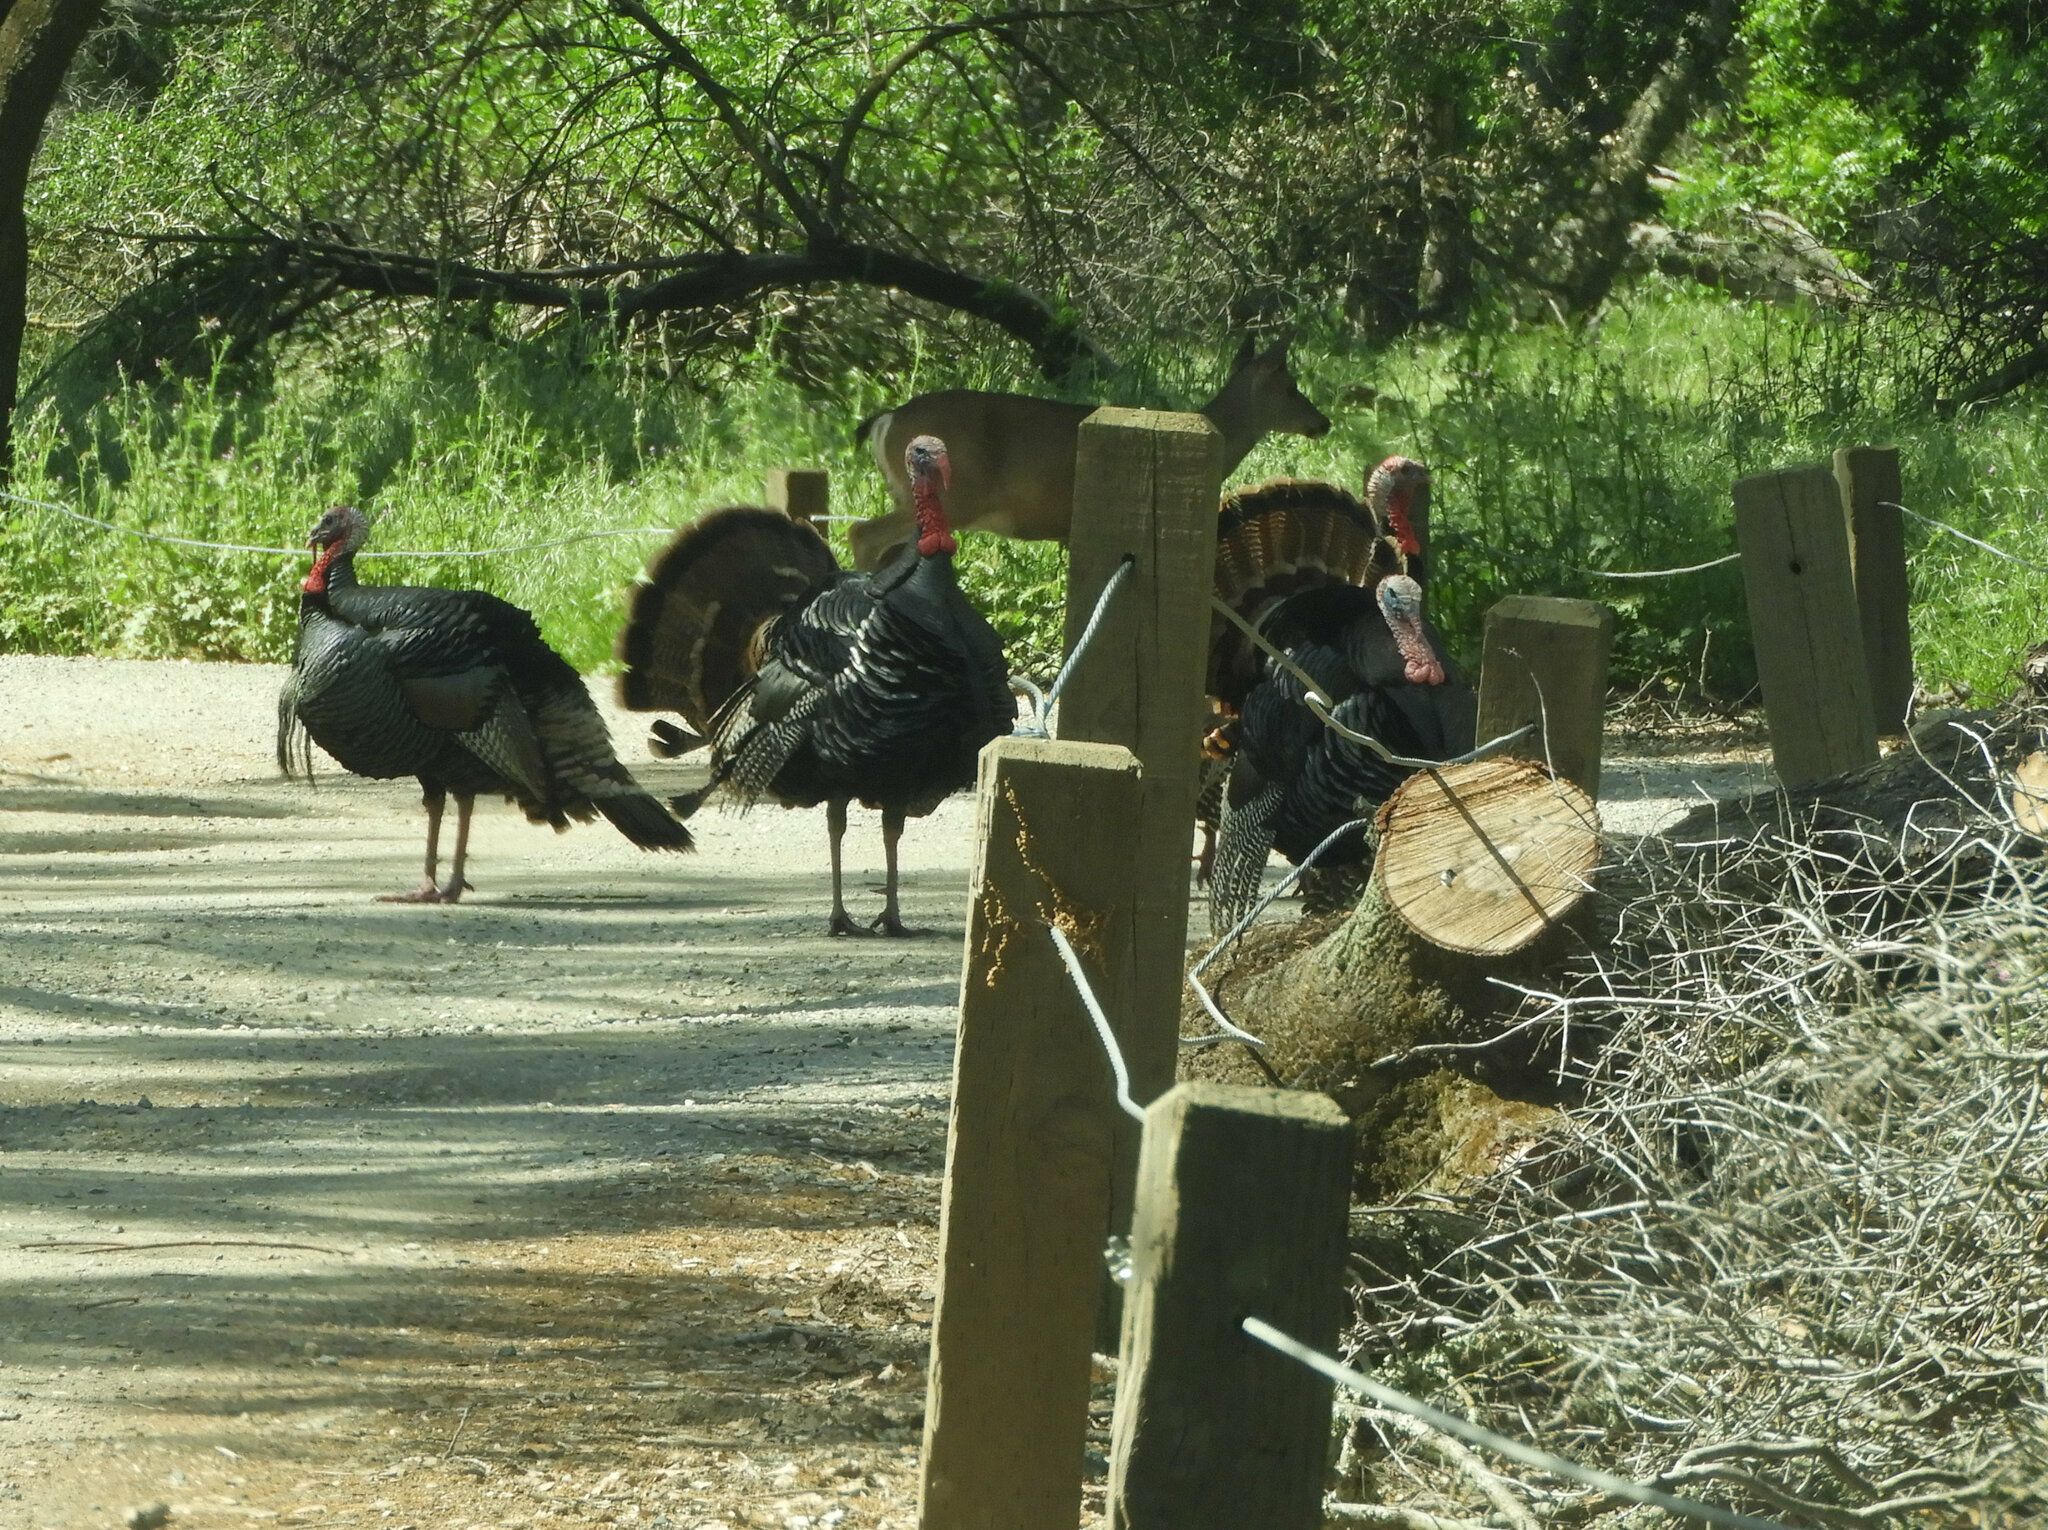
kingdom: Animalia
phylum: Chordata
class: Mammalia
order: Artiodactyla
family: Cervidae
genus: Odocoileus
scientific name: Odocoileus hemionus
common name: Mule deer
